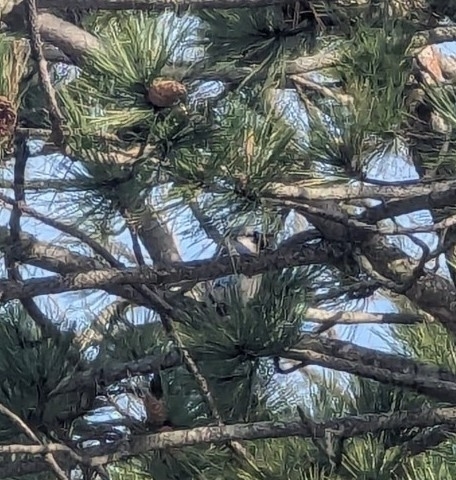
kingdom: Animalia
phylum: Chordata
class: Aves
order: Passeriformes
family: Corvidae
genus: Cyanocitta
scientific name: Cyanocitta cristata
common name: Blue jay
